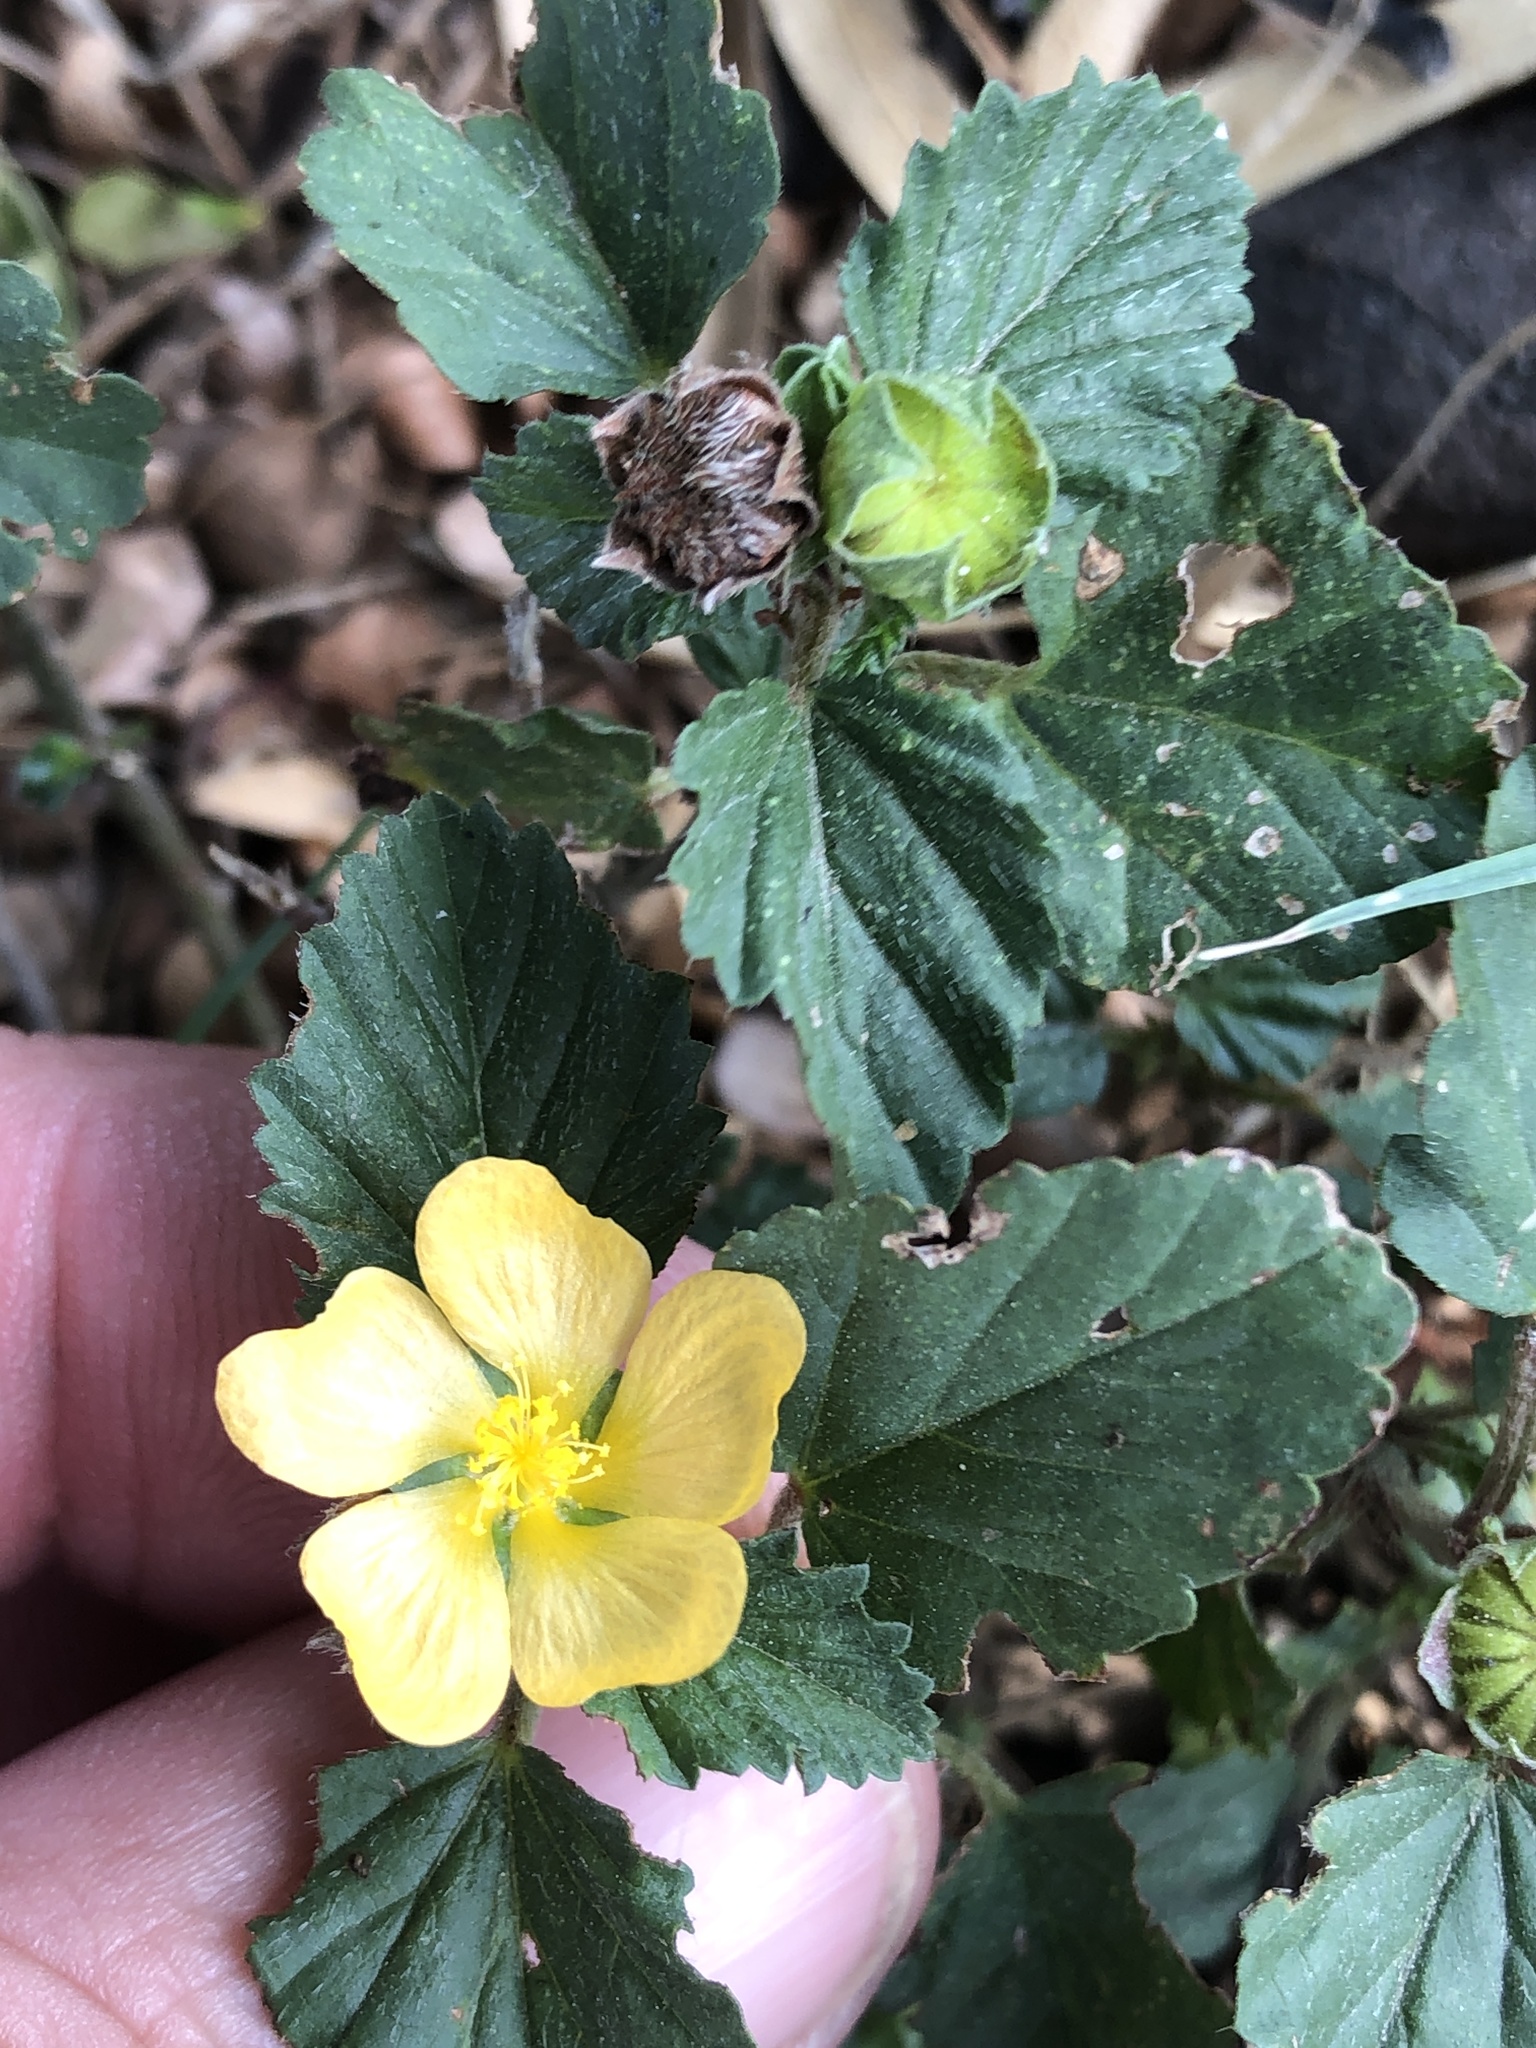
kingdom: Plantae
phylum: Tracheophyta
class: Magnoliopsida
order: Malvales
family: Malvaceae
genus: Malvastrum
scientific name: Malvastrum coromandelianum
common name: Threelobe false mallow
